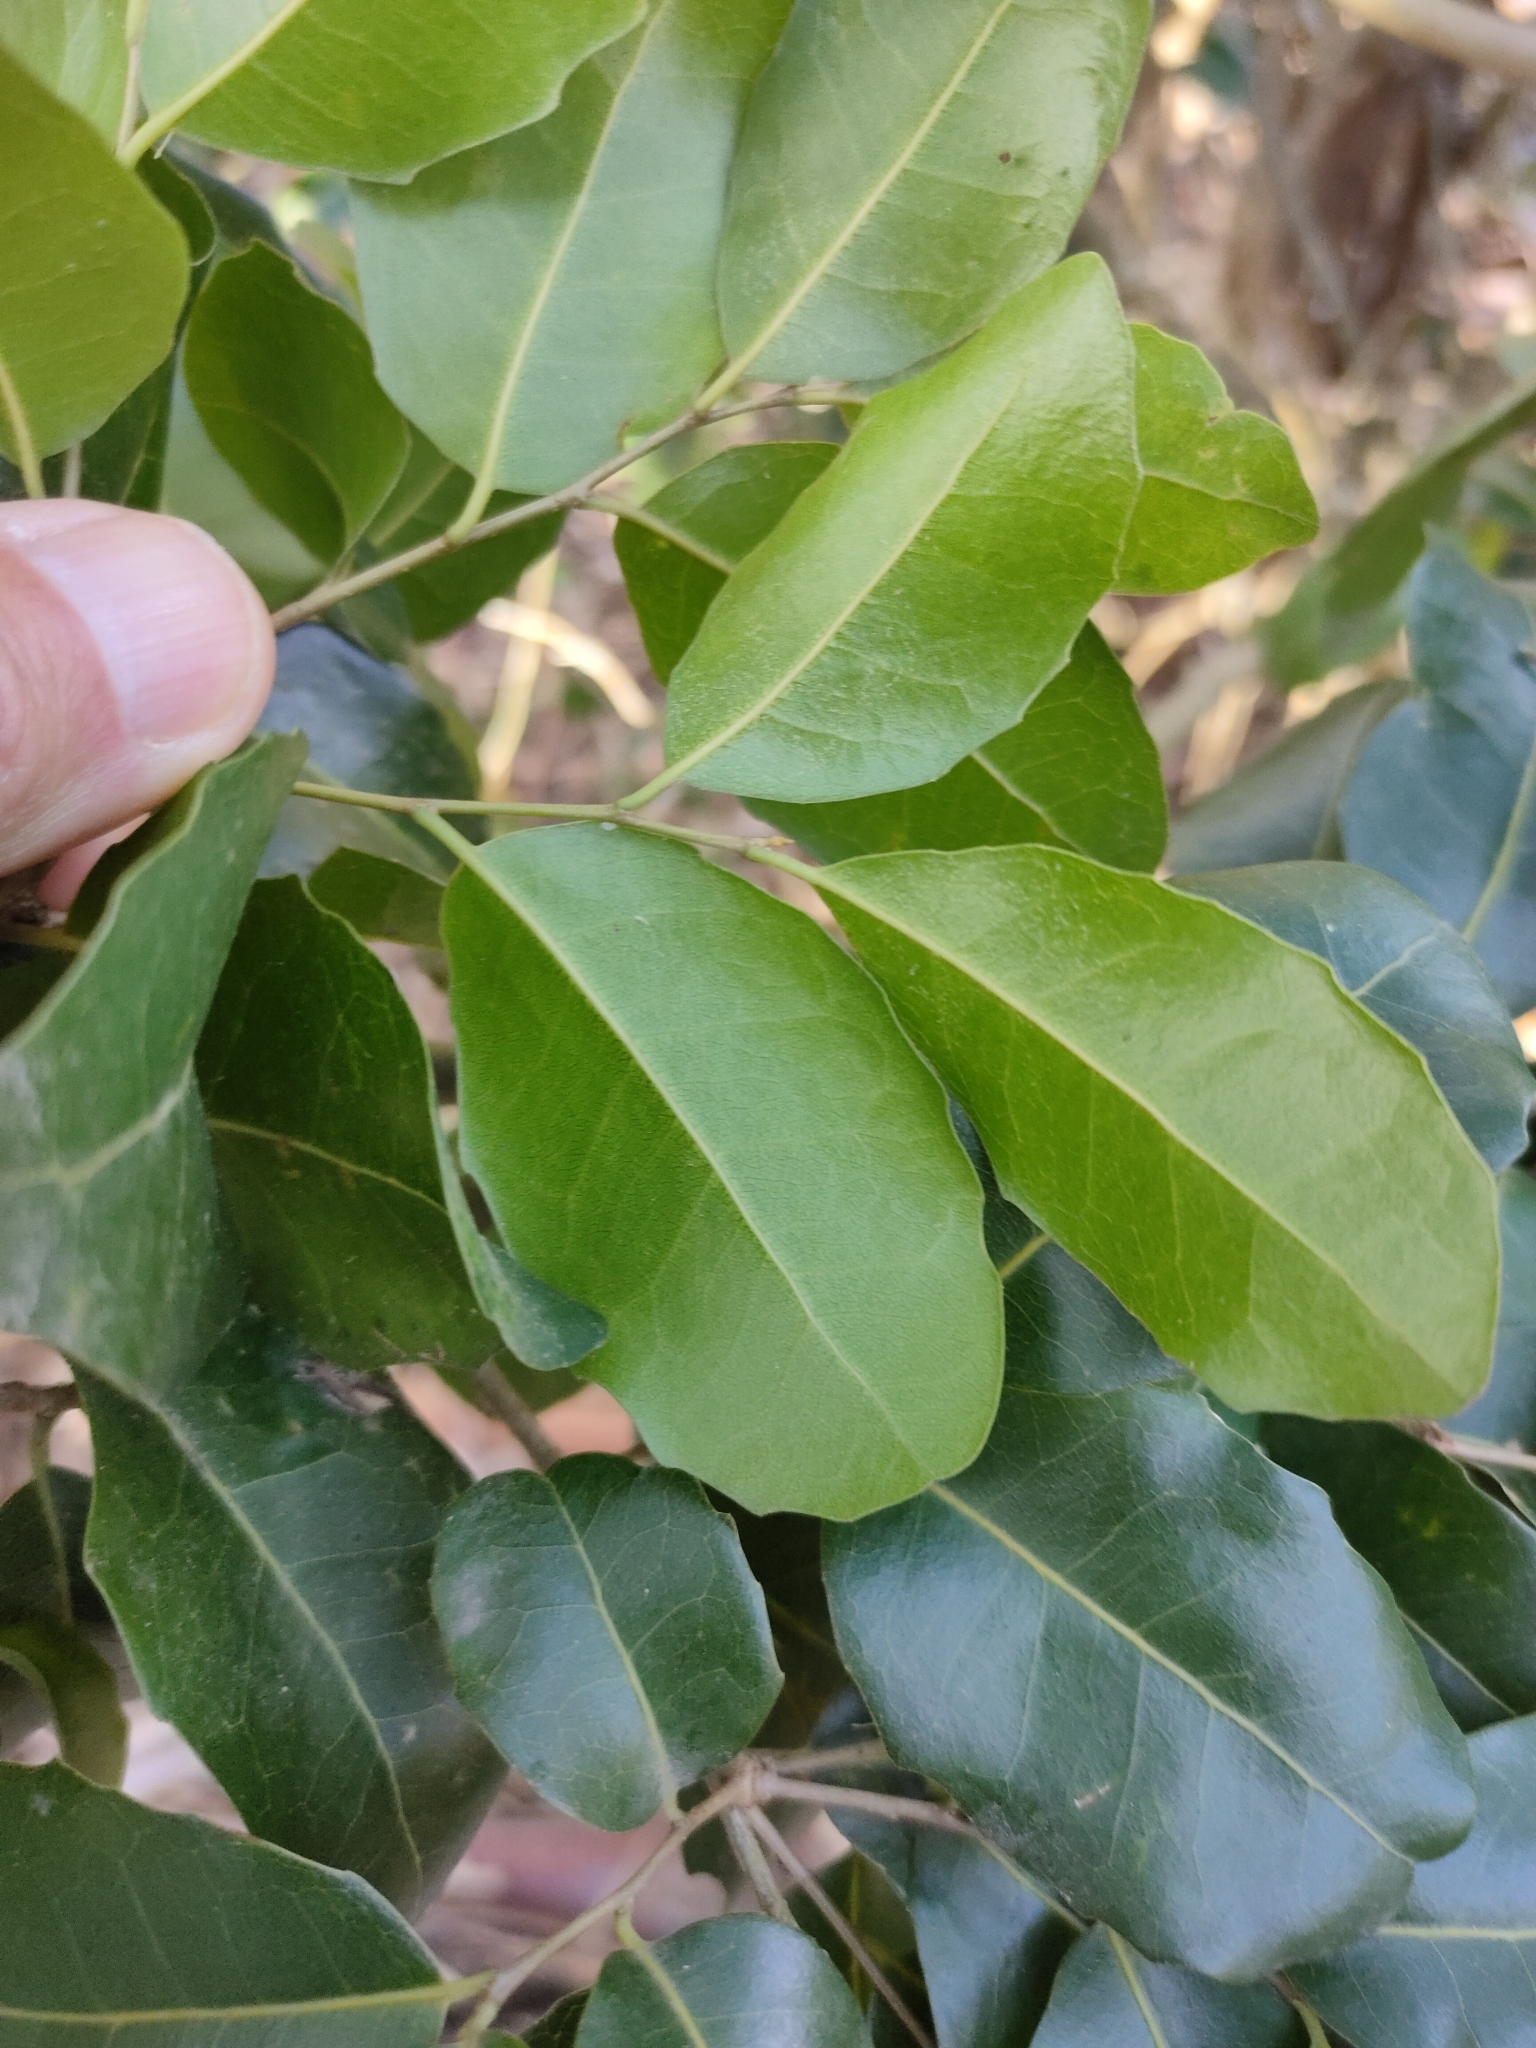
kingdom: Plantae
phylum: Tracheophyta
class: Magnoliopsida
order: Malpighiales
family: Putranjivaceae
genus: Drypetes
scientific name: Drypetes deplanchei
